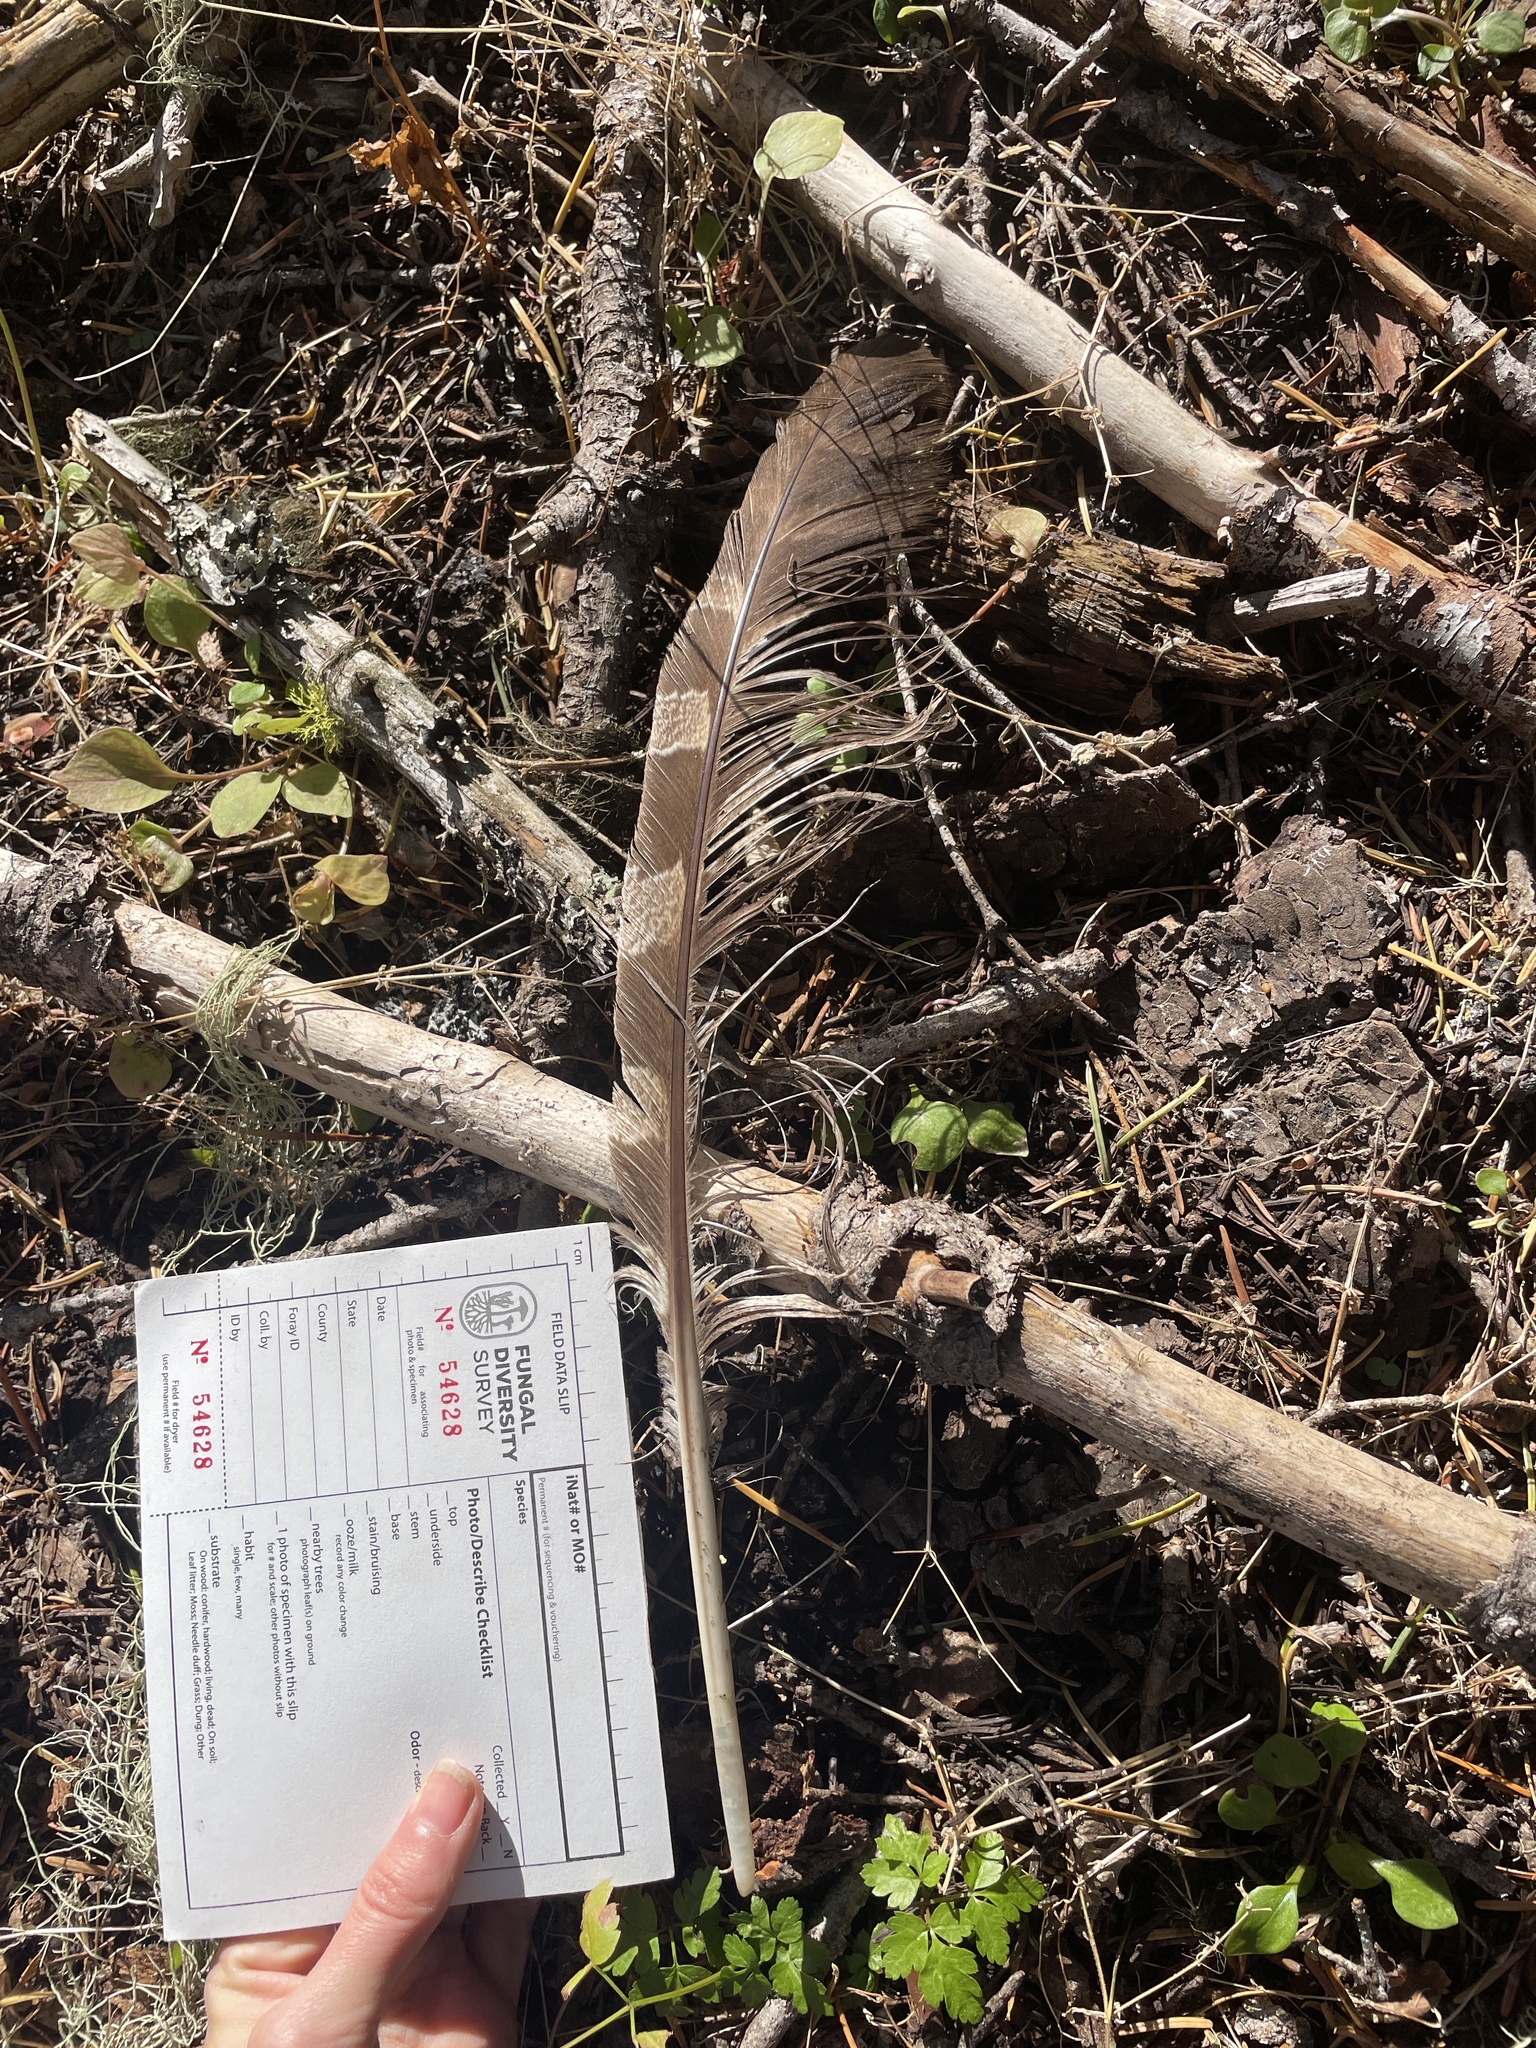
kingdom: Animalia
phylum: Chordata
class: Aves
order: Strigiformes
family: Strigidae
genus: Strix
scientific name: Strix nebulosa
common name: Great grey owl
